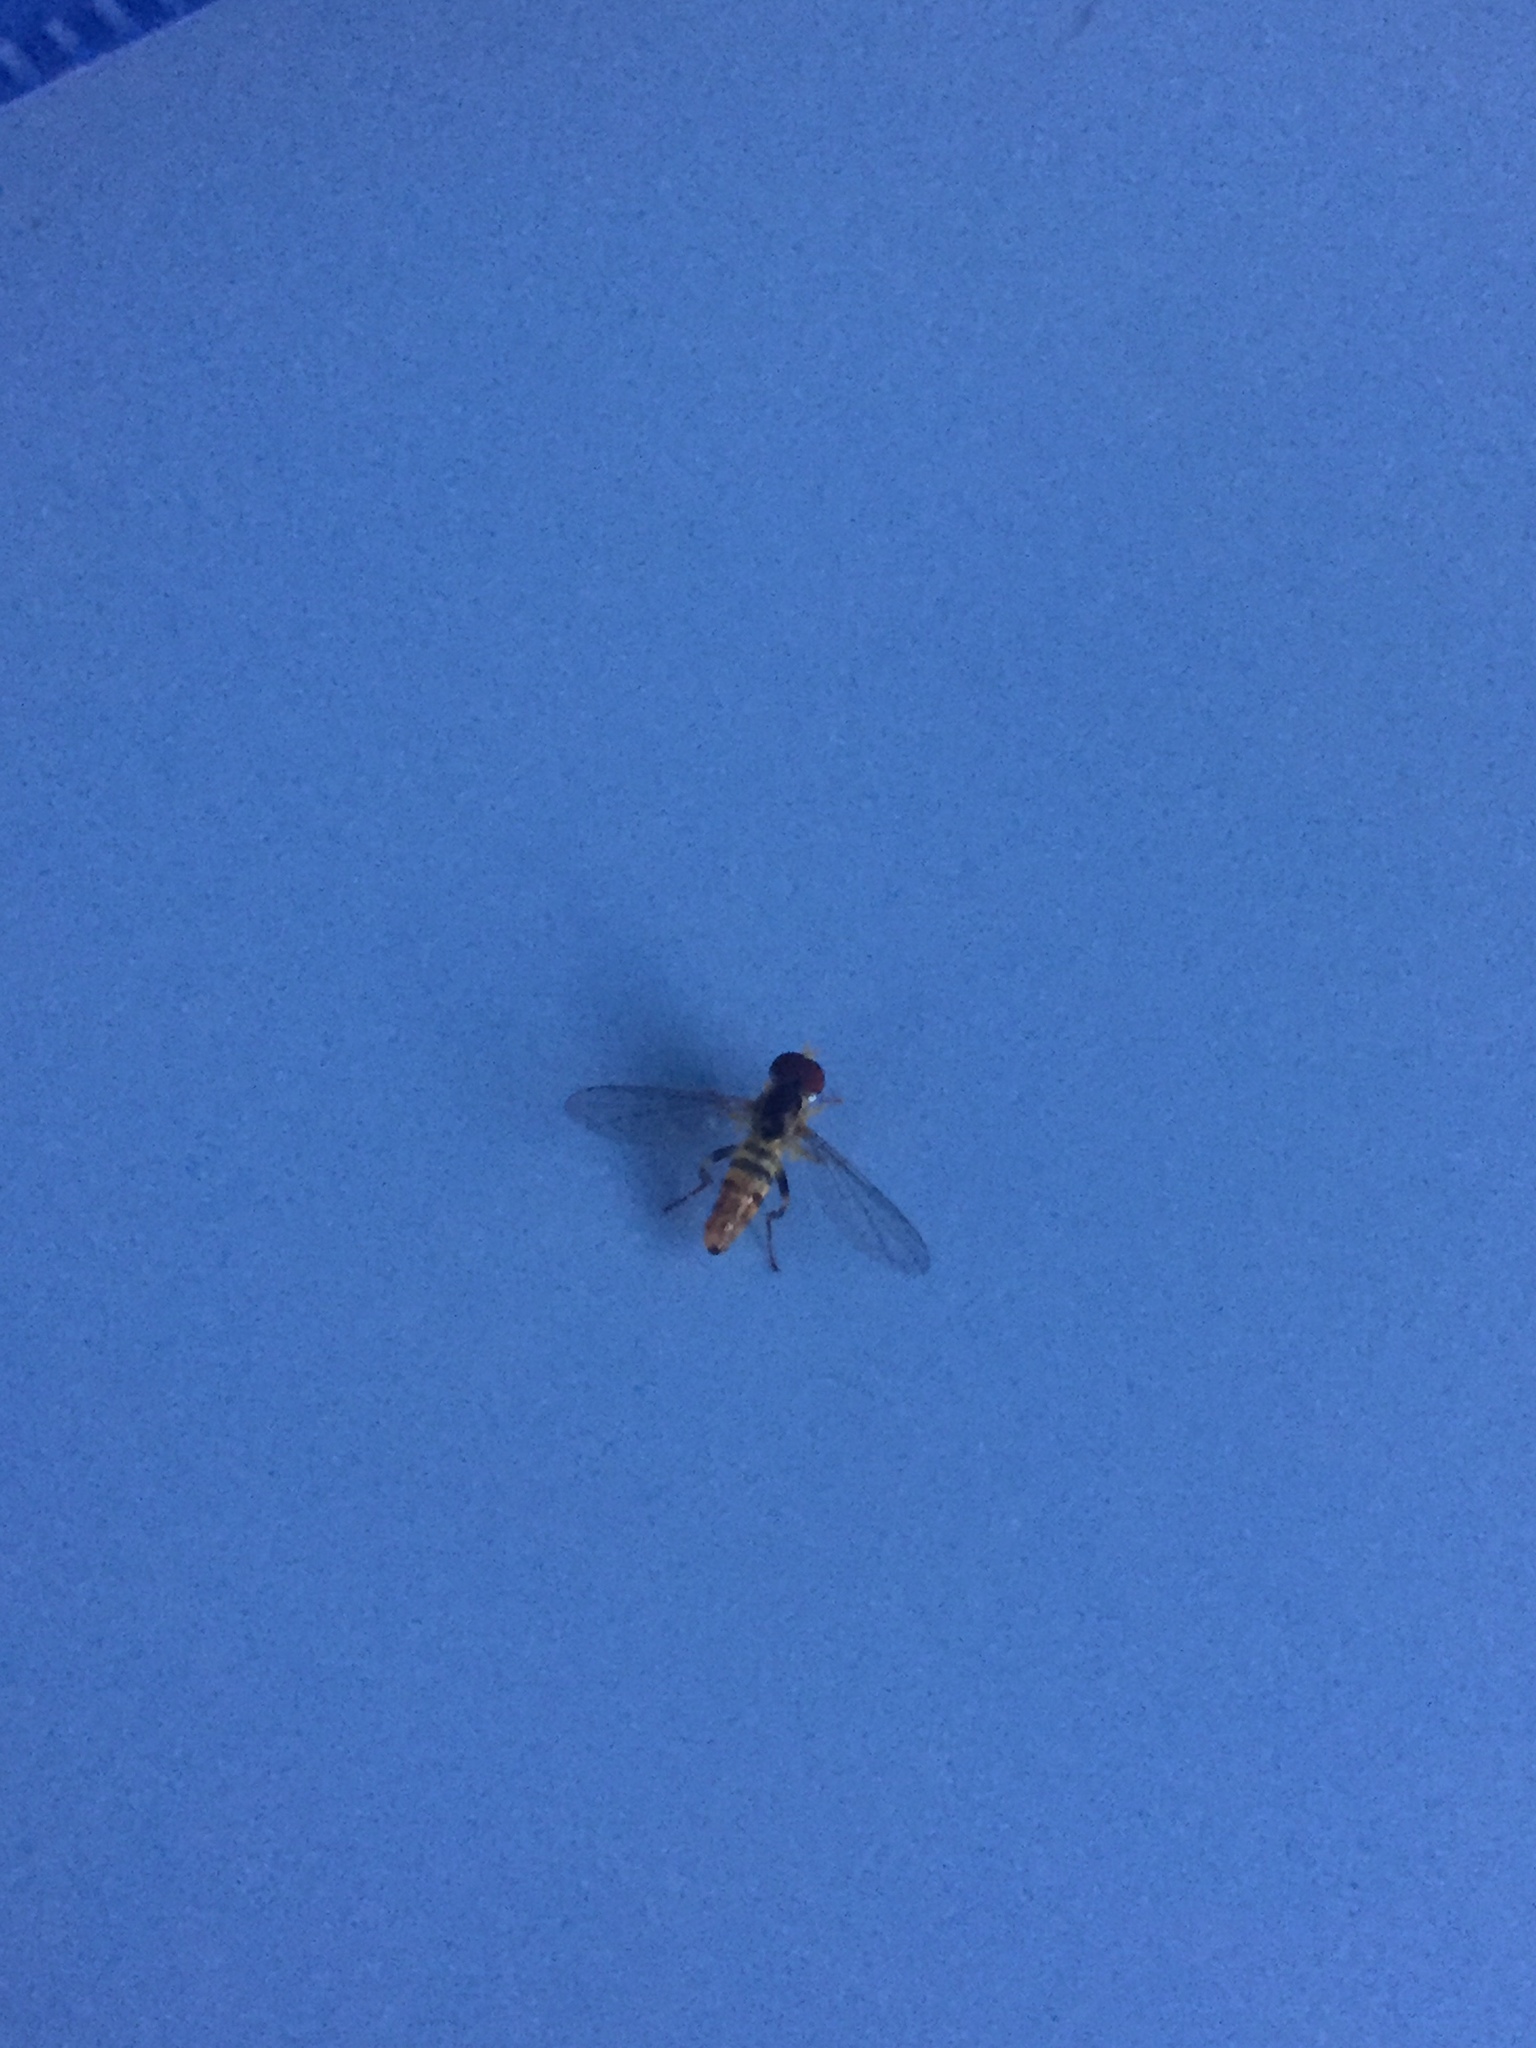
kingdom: Animalia
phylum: Arthropoda
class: Insecta
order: Diptera
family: Syrphidae
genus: Toxomerus
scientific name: Toxomerus geminatus
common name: Eastern calligrapher
